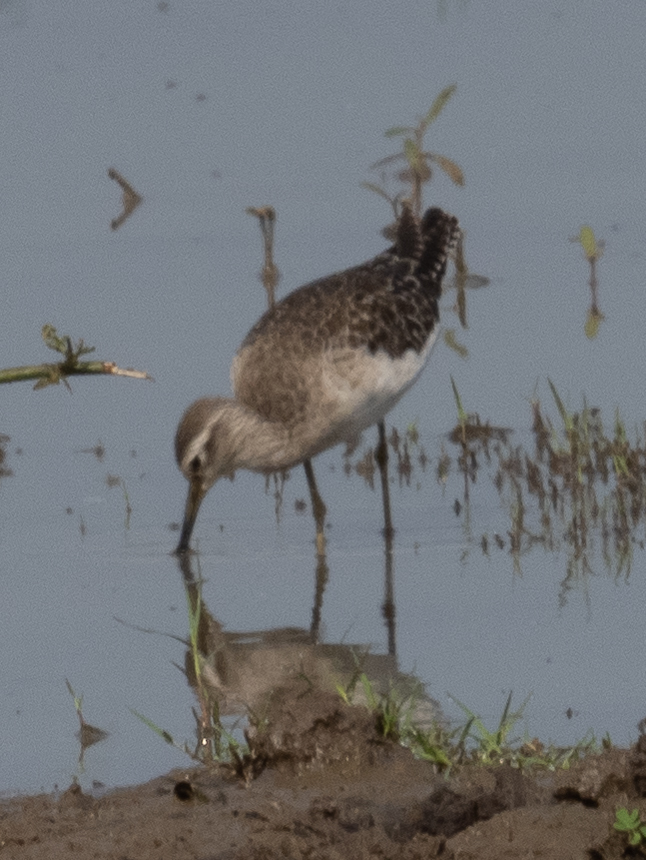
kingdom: Animalia
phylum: Chordata
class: Aves
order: Charadriiformes
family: Scolopacidae
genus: Tringa
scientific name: Tringa glareola
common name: Wood sandpiper
